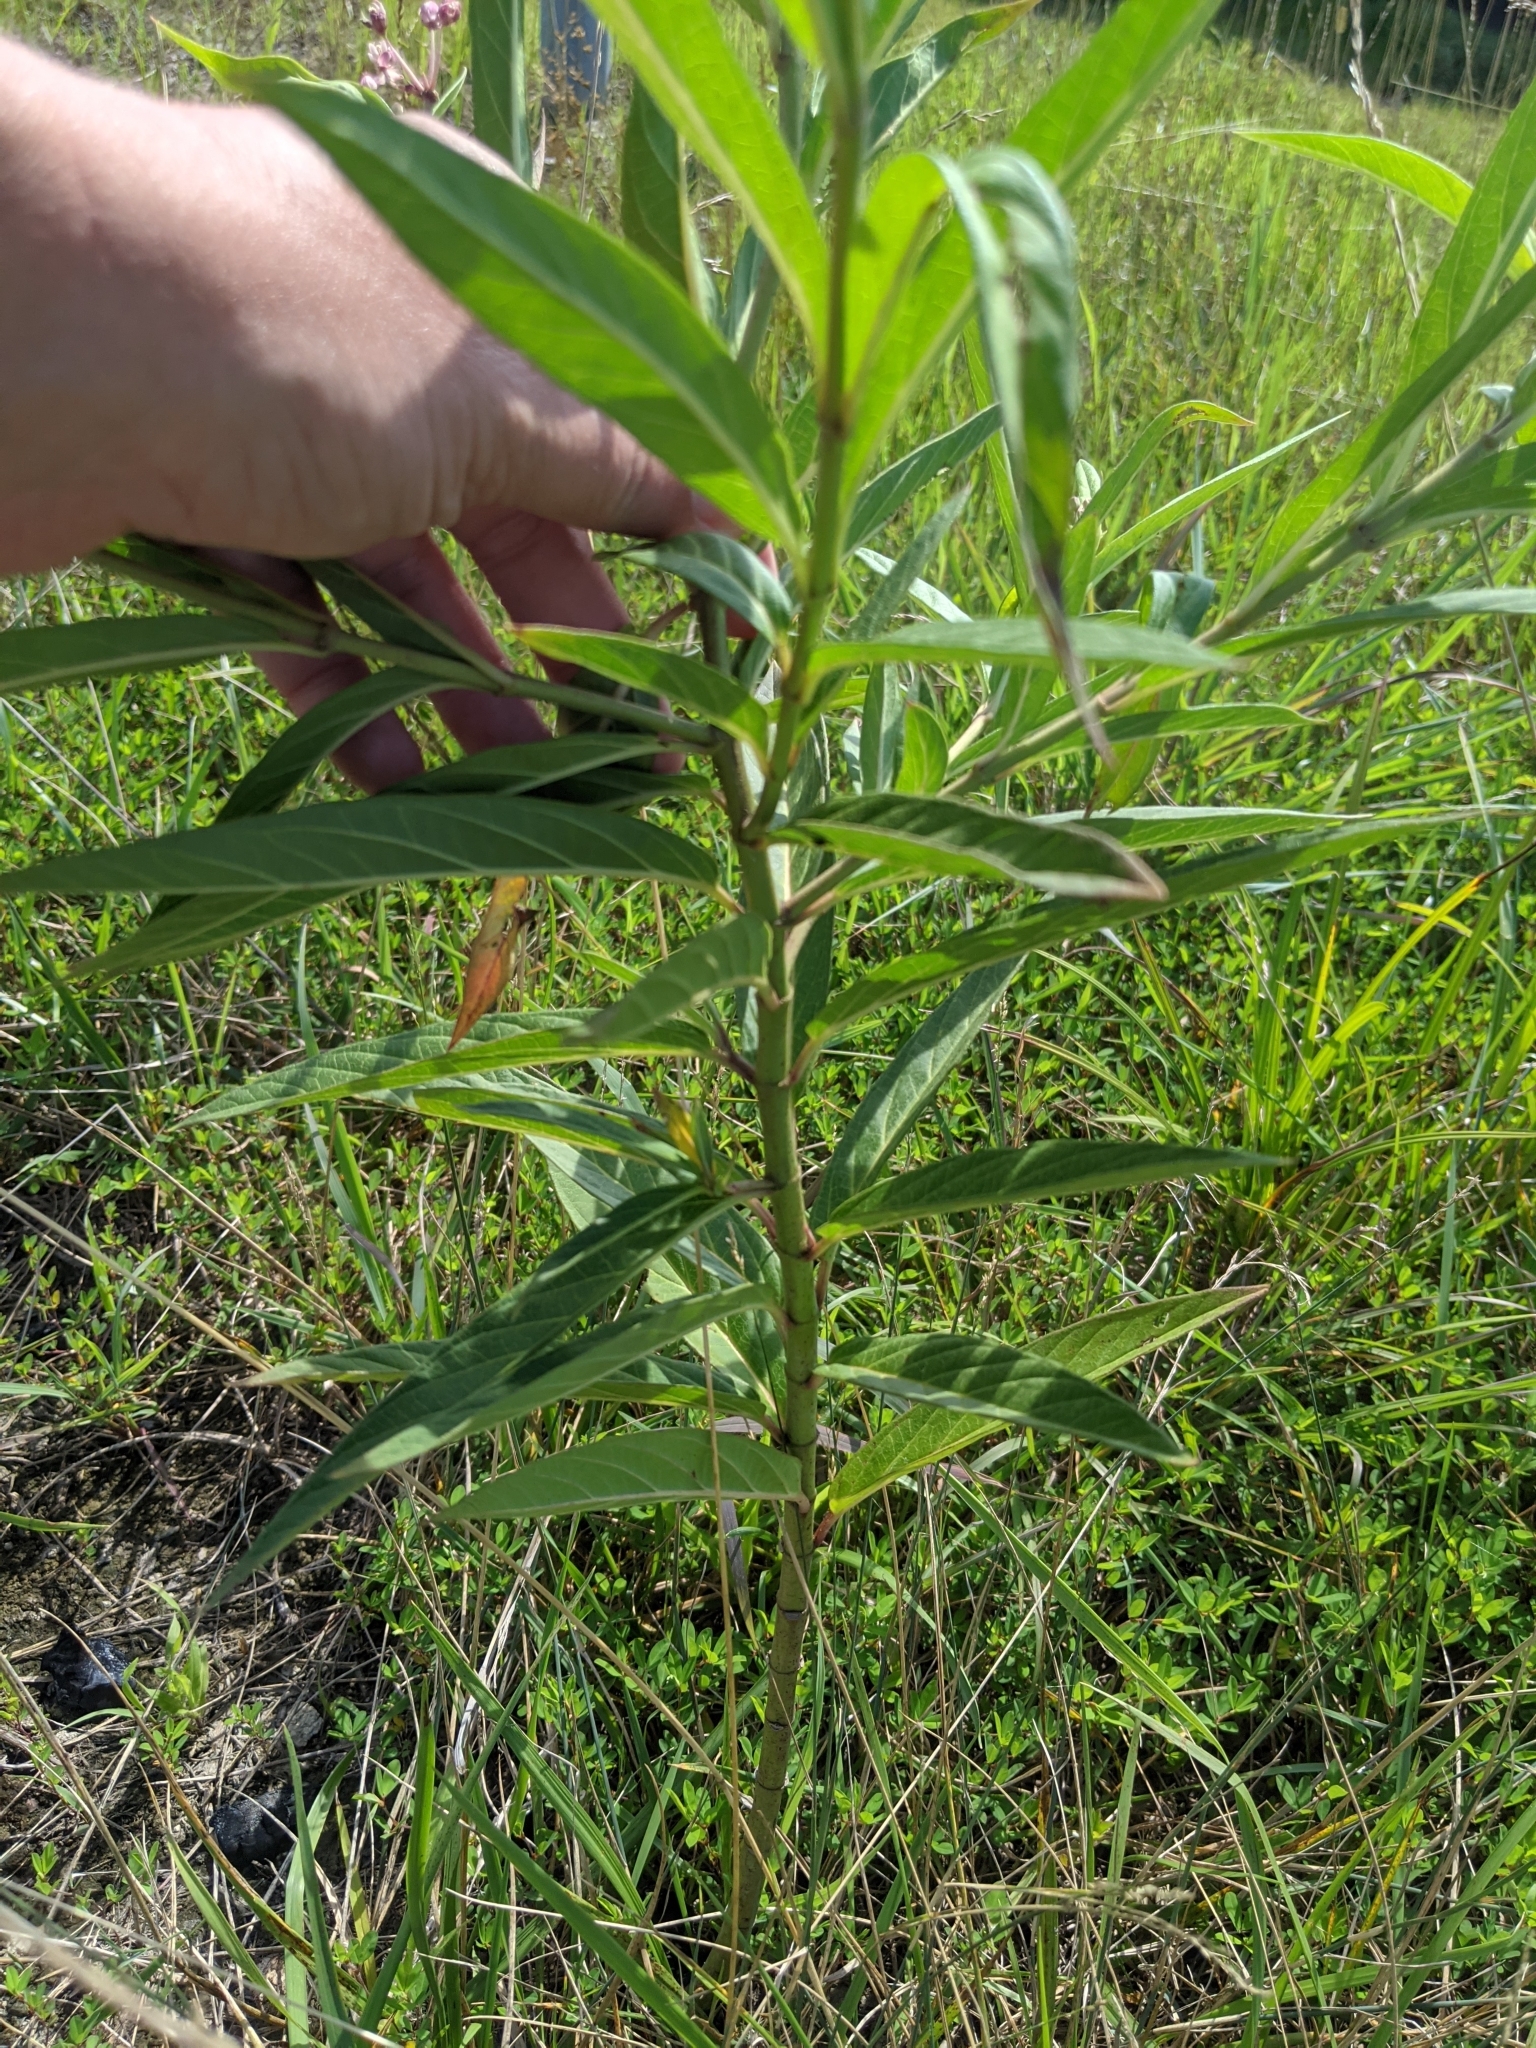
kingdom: Plantae
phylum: Tracheophyta
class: Magnoliopsida
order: Gentianales
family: Apocynaceae
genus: Asclepias
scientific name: Asclepias incarnata
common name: Swamp milkweed
